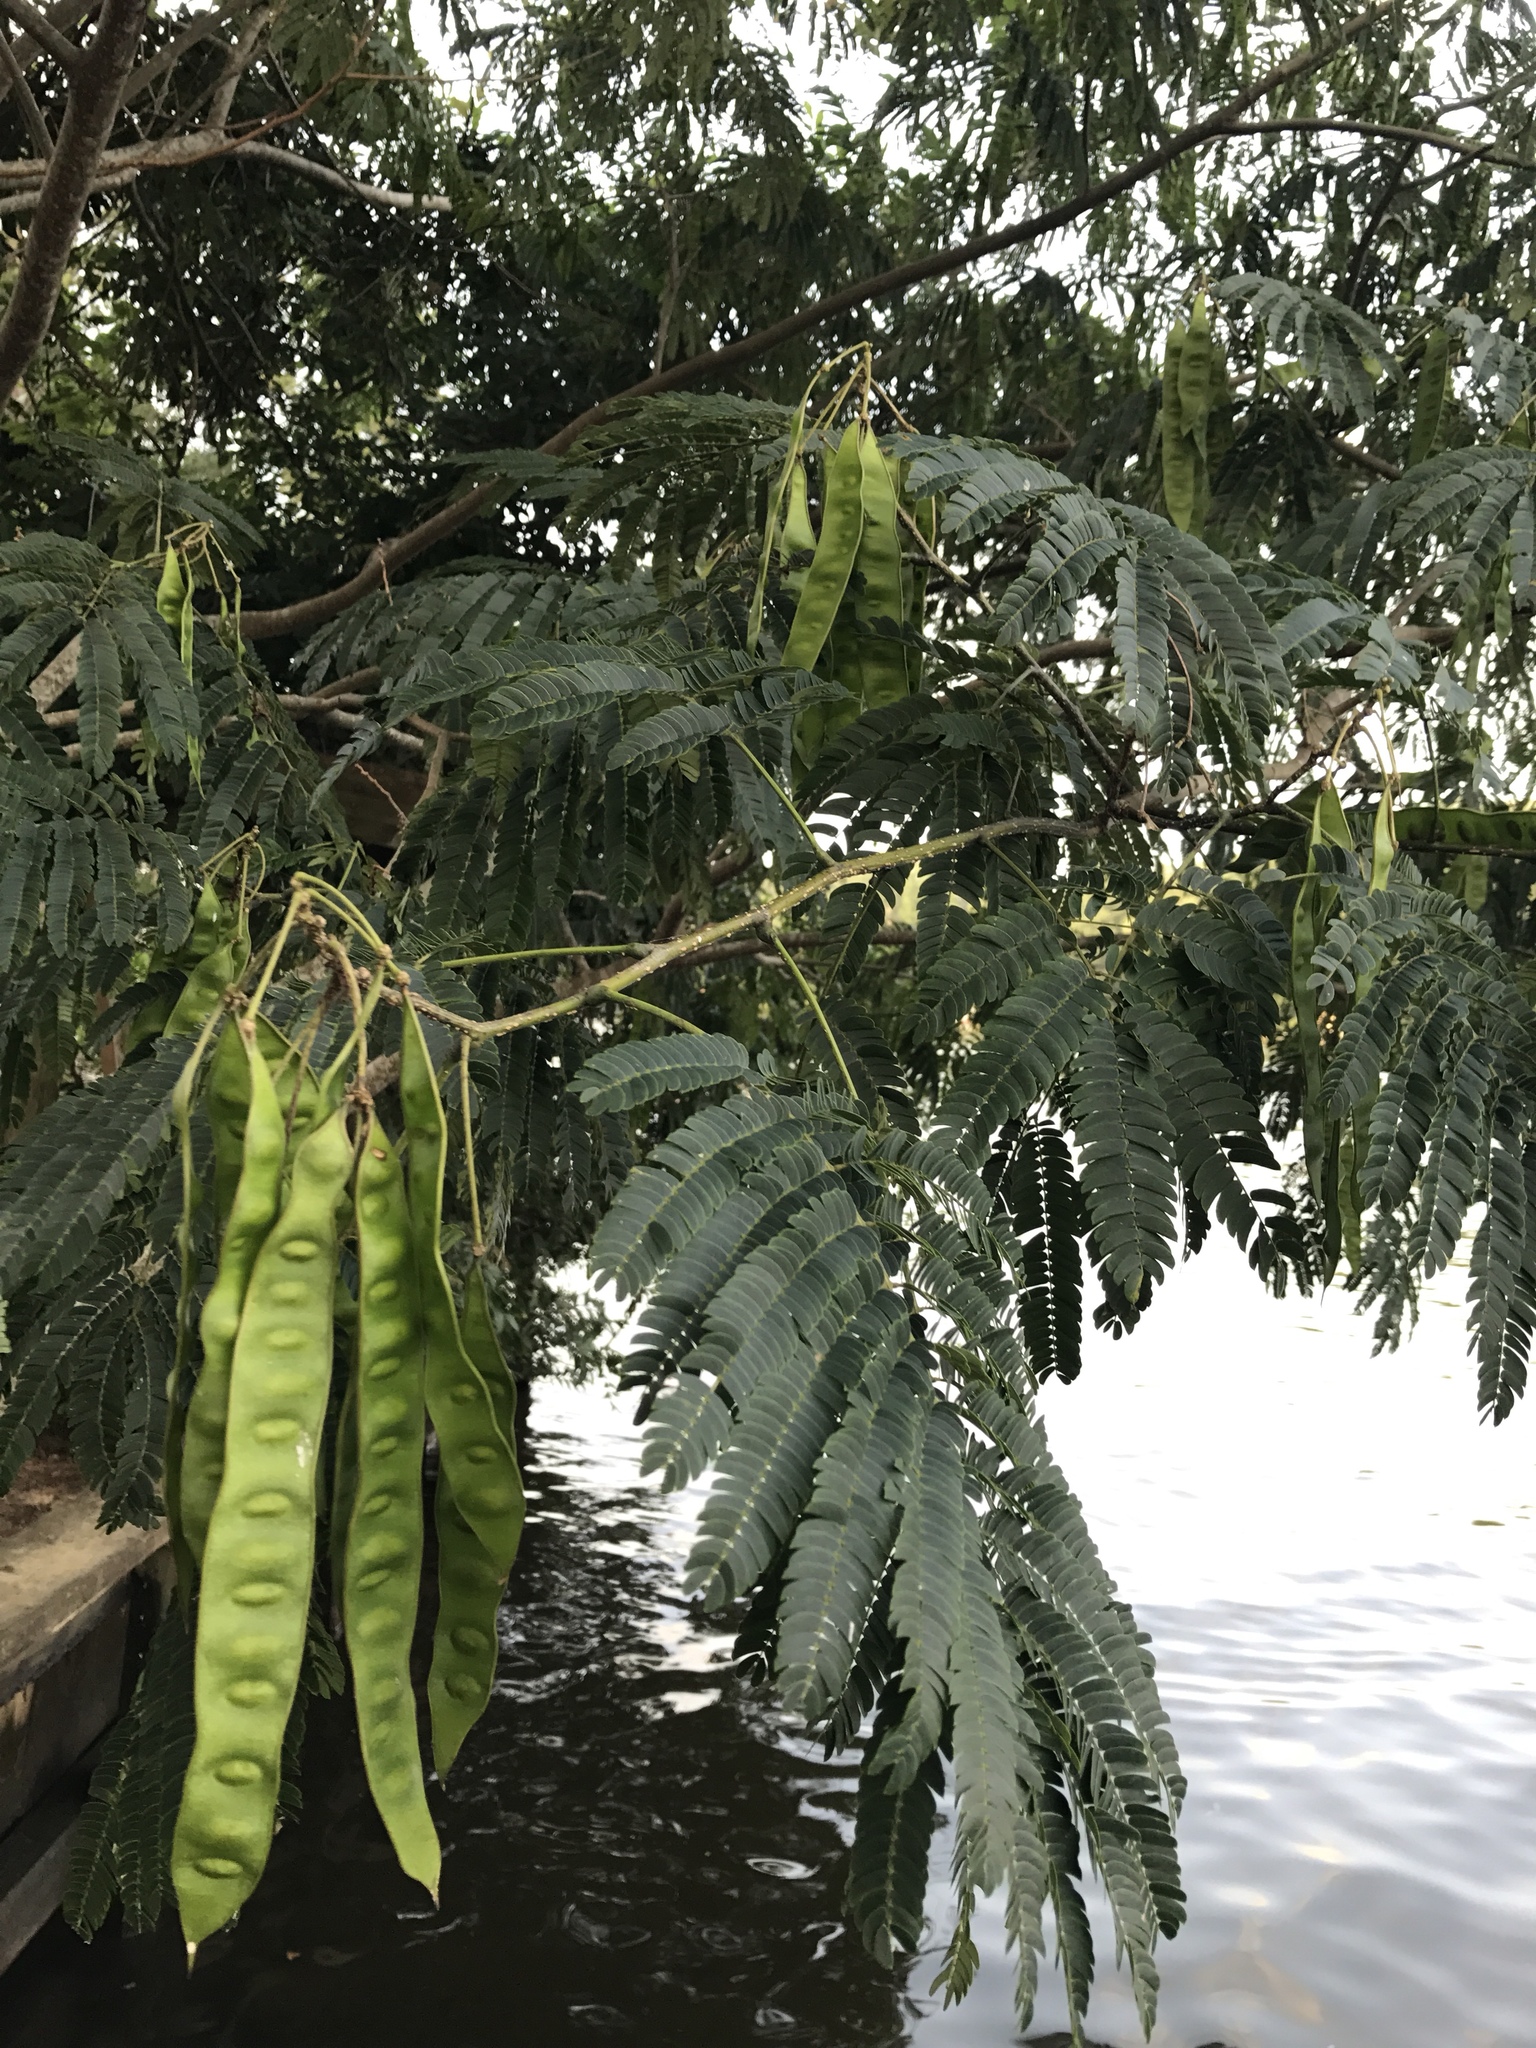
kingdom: Plantae
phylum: Tracheophyta
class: Magnoliopsida
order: Fabales
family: Fabaceae
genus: Albizia
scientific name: Albizia julibrissin
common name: Silktree
